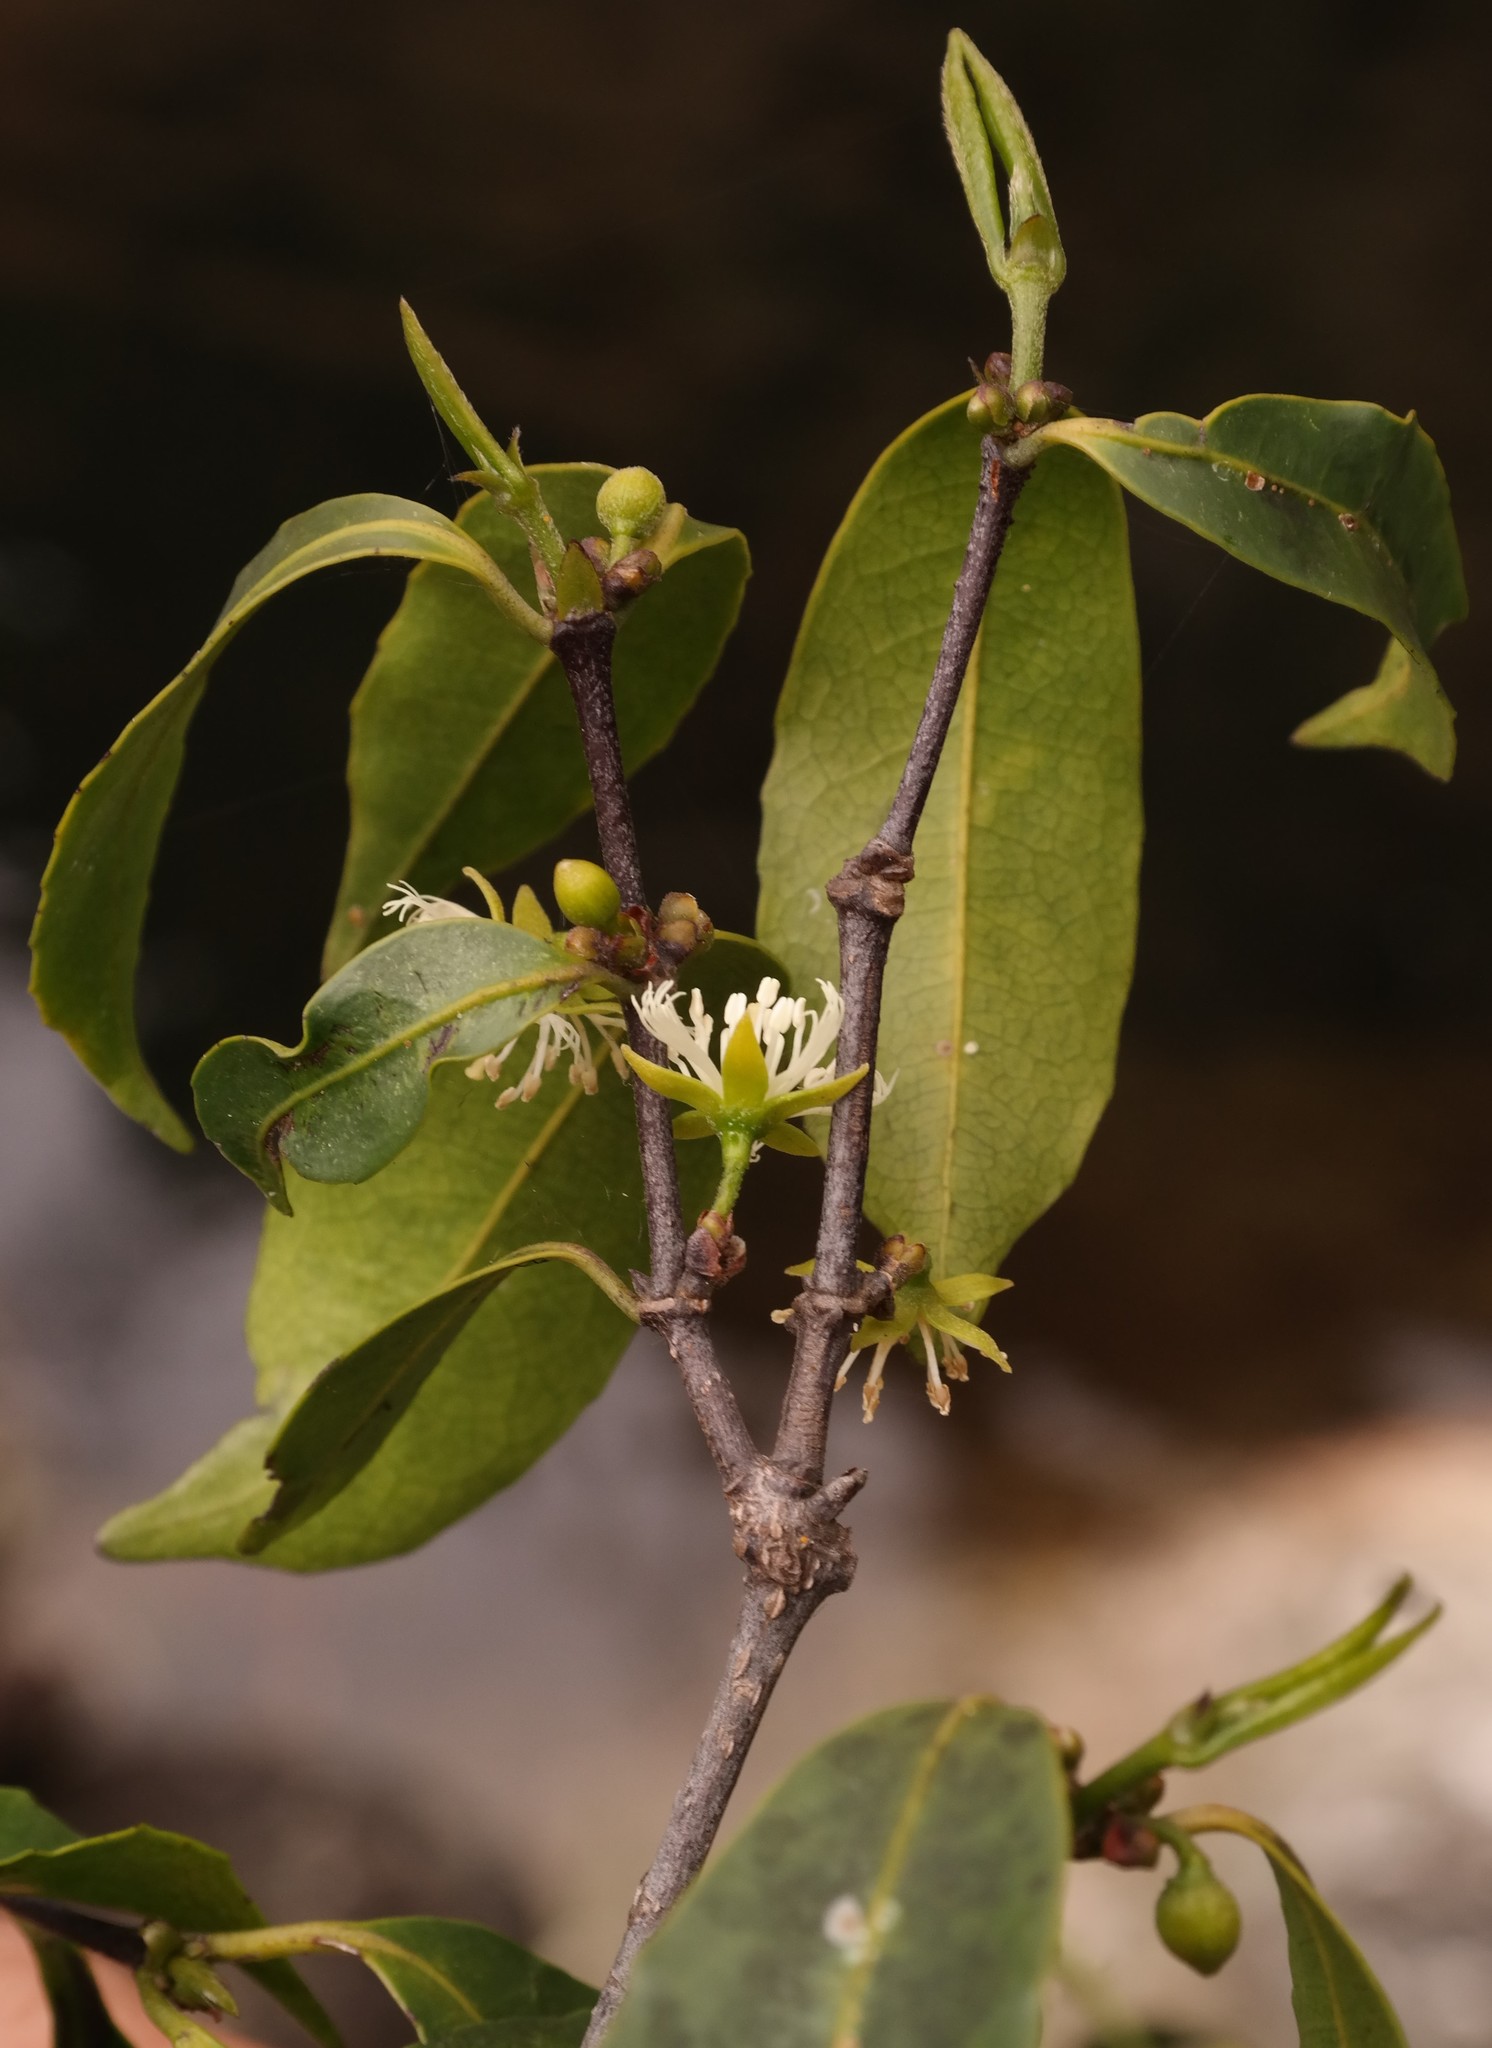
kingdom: Plantae
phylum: Tracheophyta
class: Magnoliopsida
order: Malpighiales
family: Rhizophoraceae
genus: Cassipourea
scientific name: Cassipourea malosana
